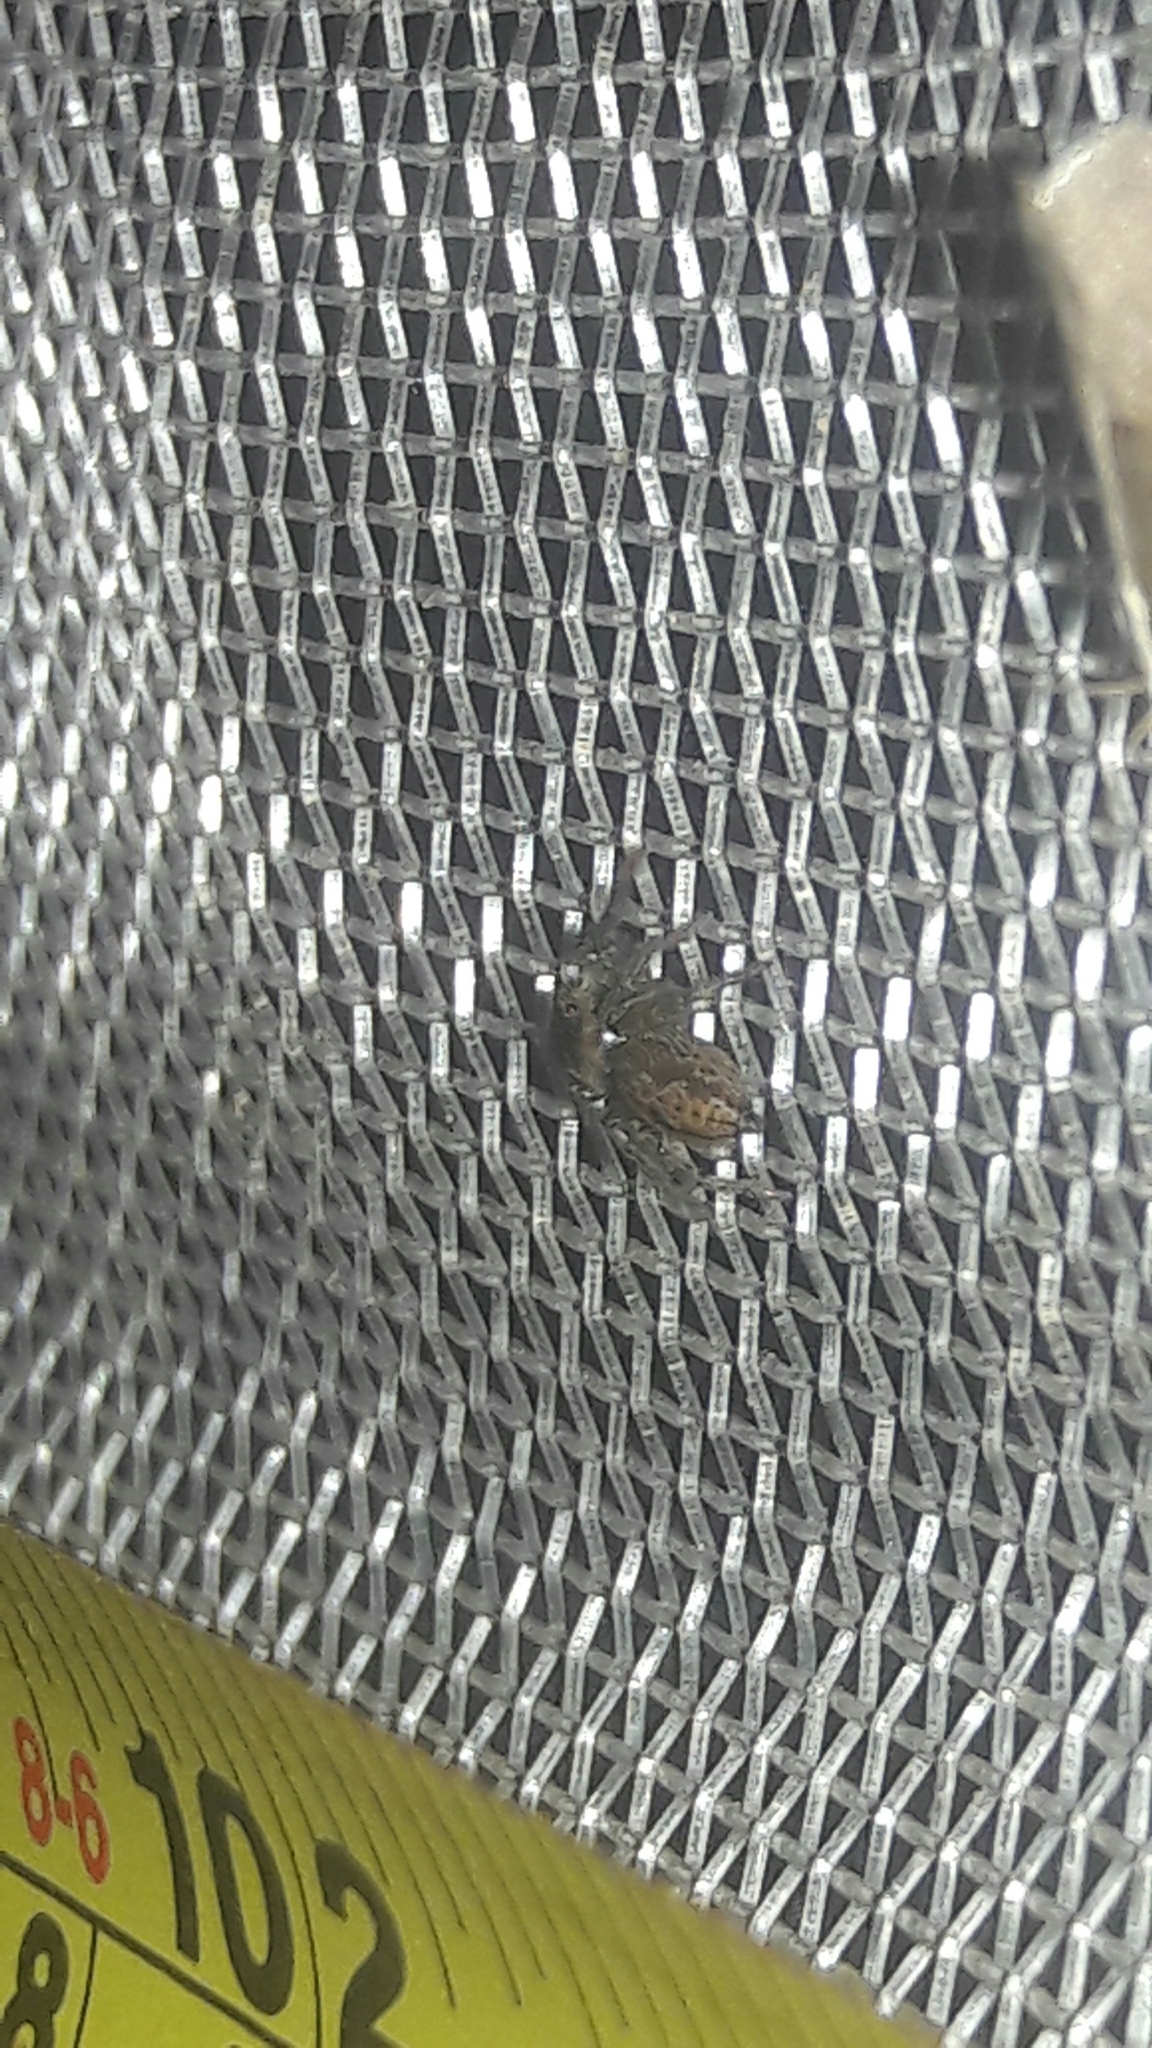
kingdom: Animalia
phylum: Arthropoda
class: Arachnida
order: Araneae
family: Salticidae
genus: Hasarius
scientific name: Hasarius adansoni
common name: Jumping spider
